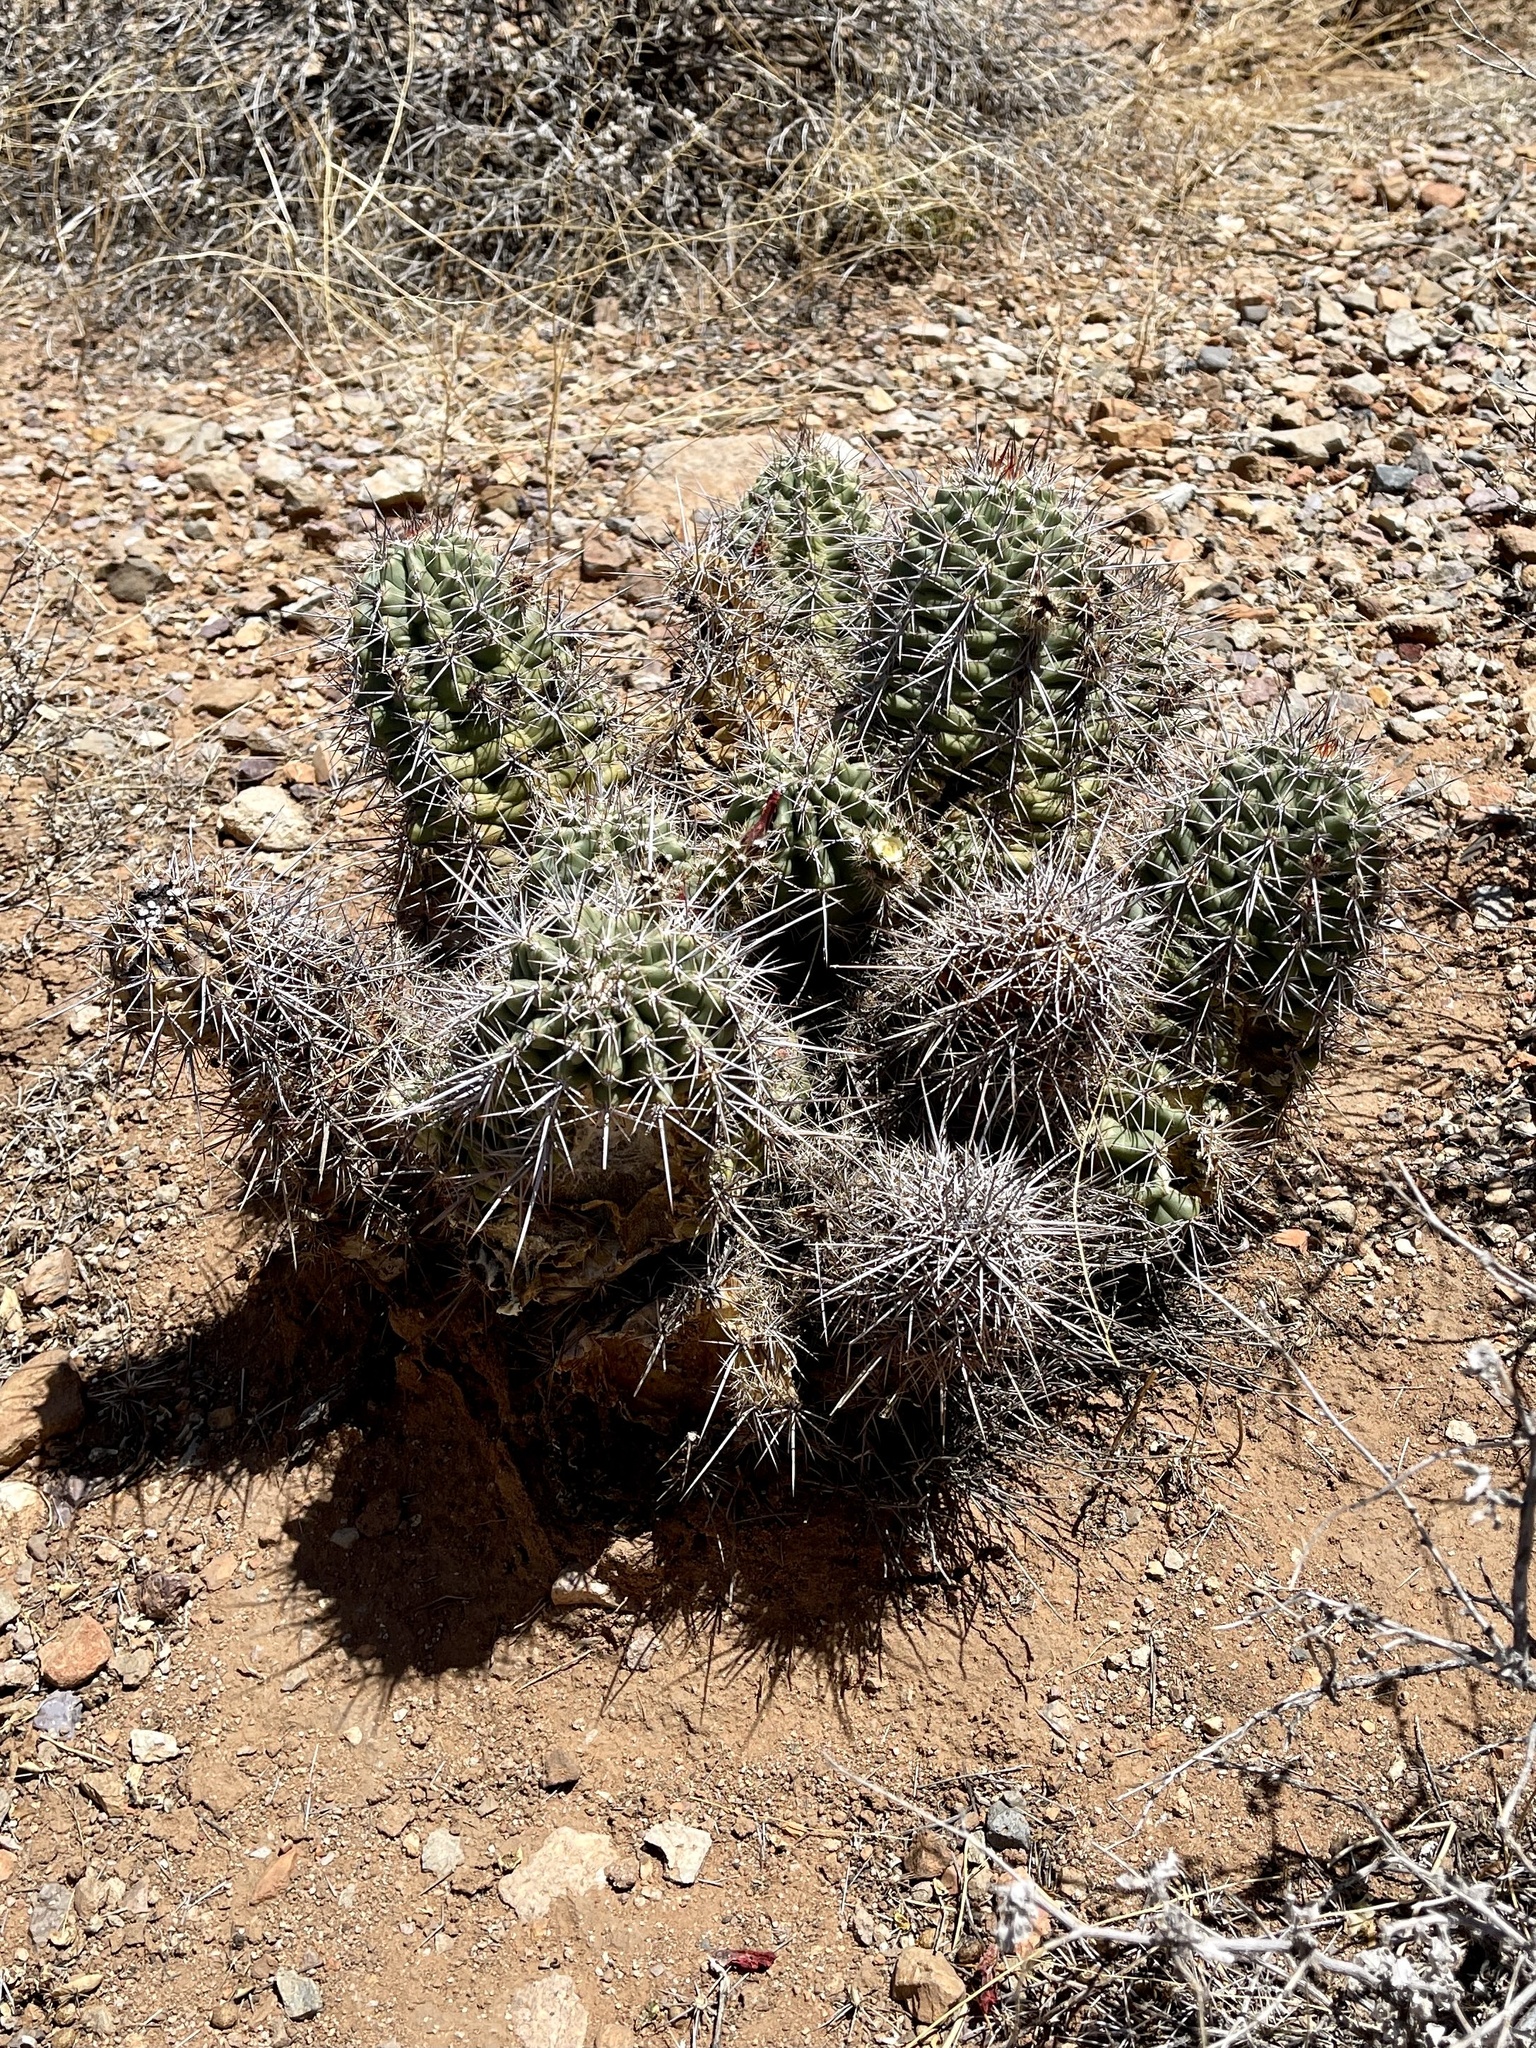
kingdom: Plantae
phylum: Tracheophyta
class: Magnoliopsida
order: Caryophyllales
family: Cactaceae
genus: Echinocereus
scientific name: Echinocereus coccineus
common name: Scarlet hedgehog cactus
